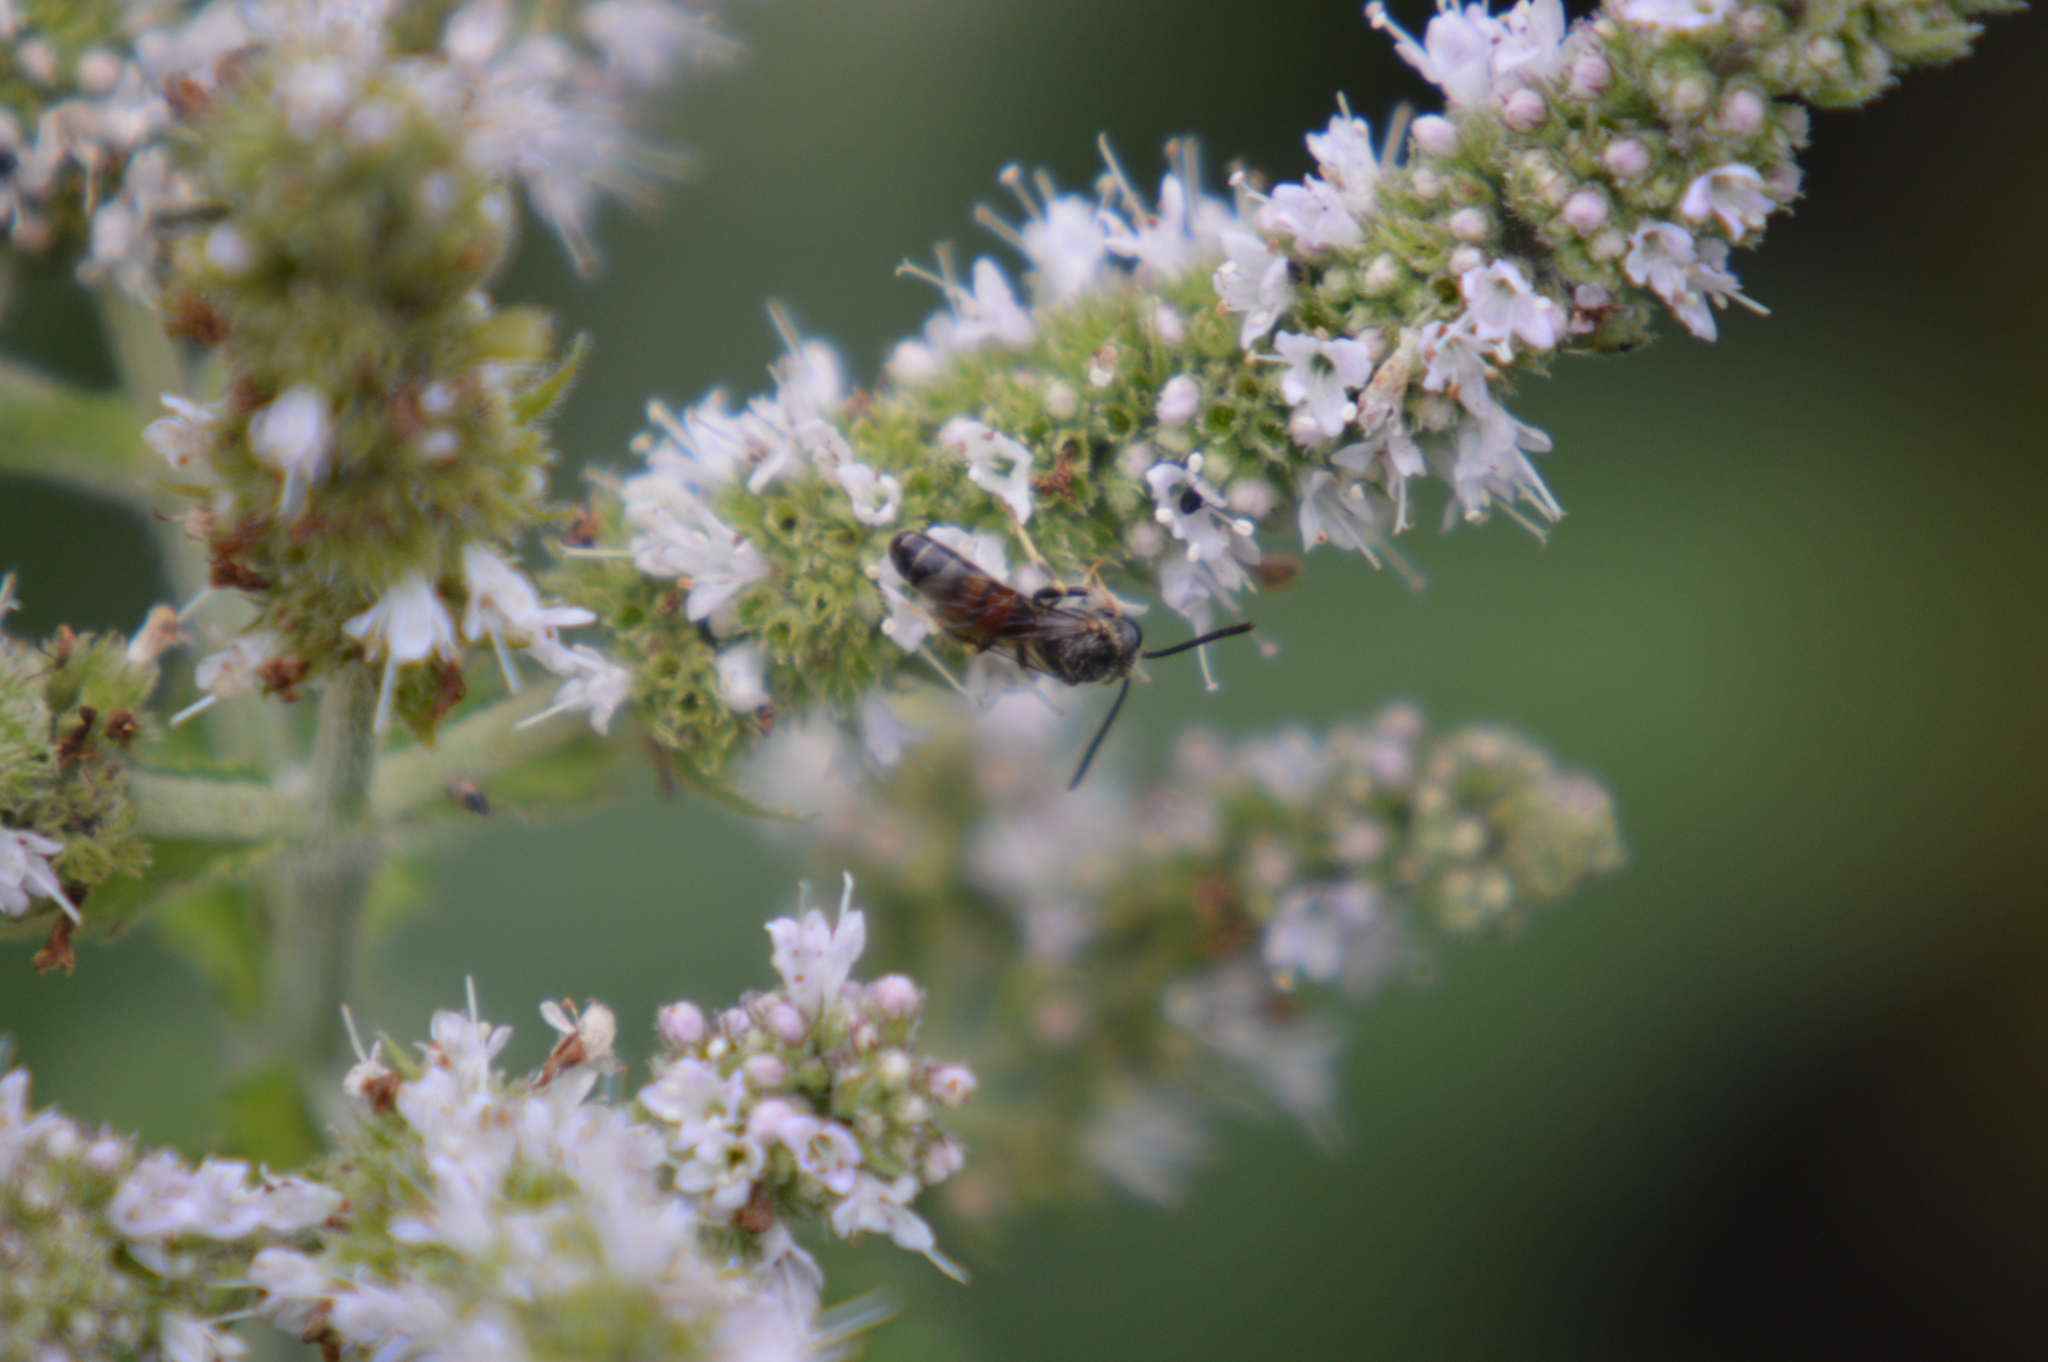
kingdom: Animalia
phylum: Arthropoda
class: Insecta
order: Hymenoptera
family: Halictidae
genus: Lasioglossum
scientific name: Lasioglossum
